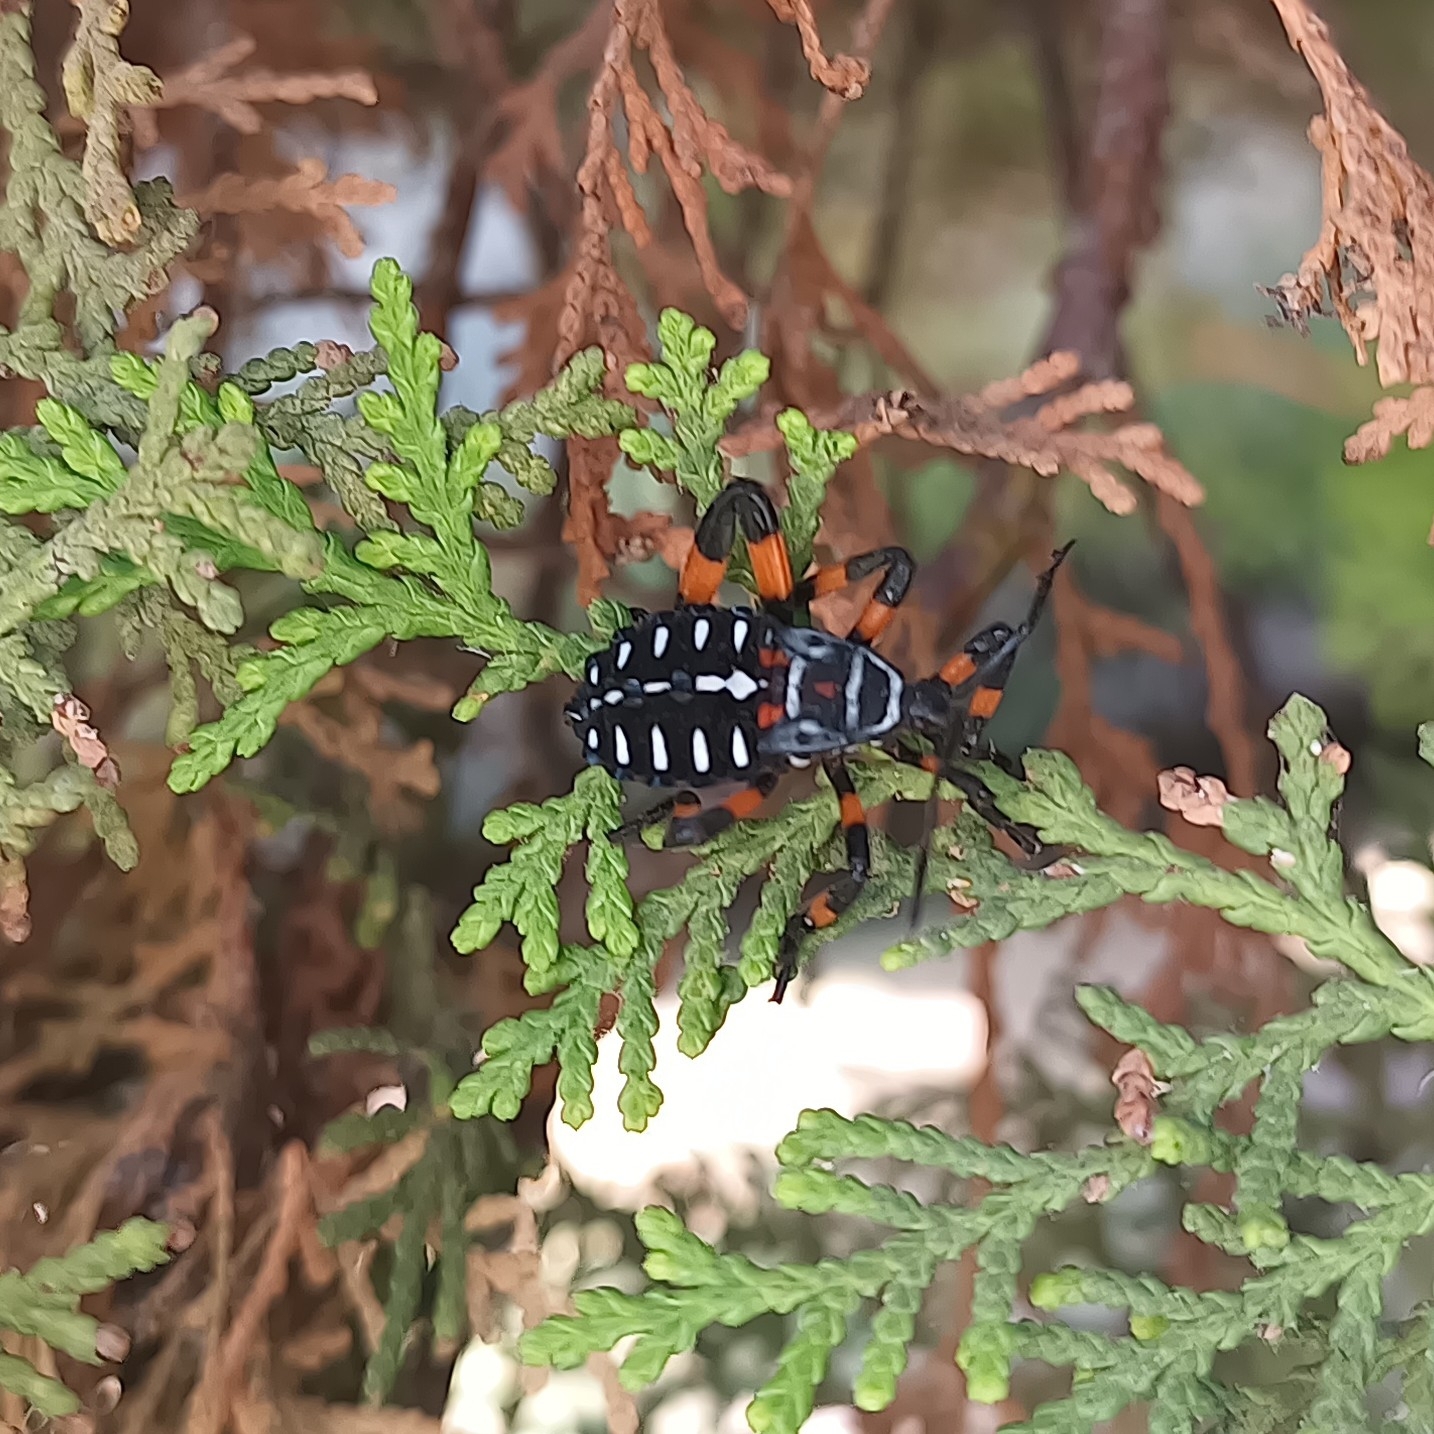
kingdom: Animalia
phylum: Arthropoda
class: Insecta
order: Hemiptera
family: Coreidae
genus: Thasus
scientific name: Thasus
